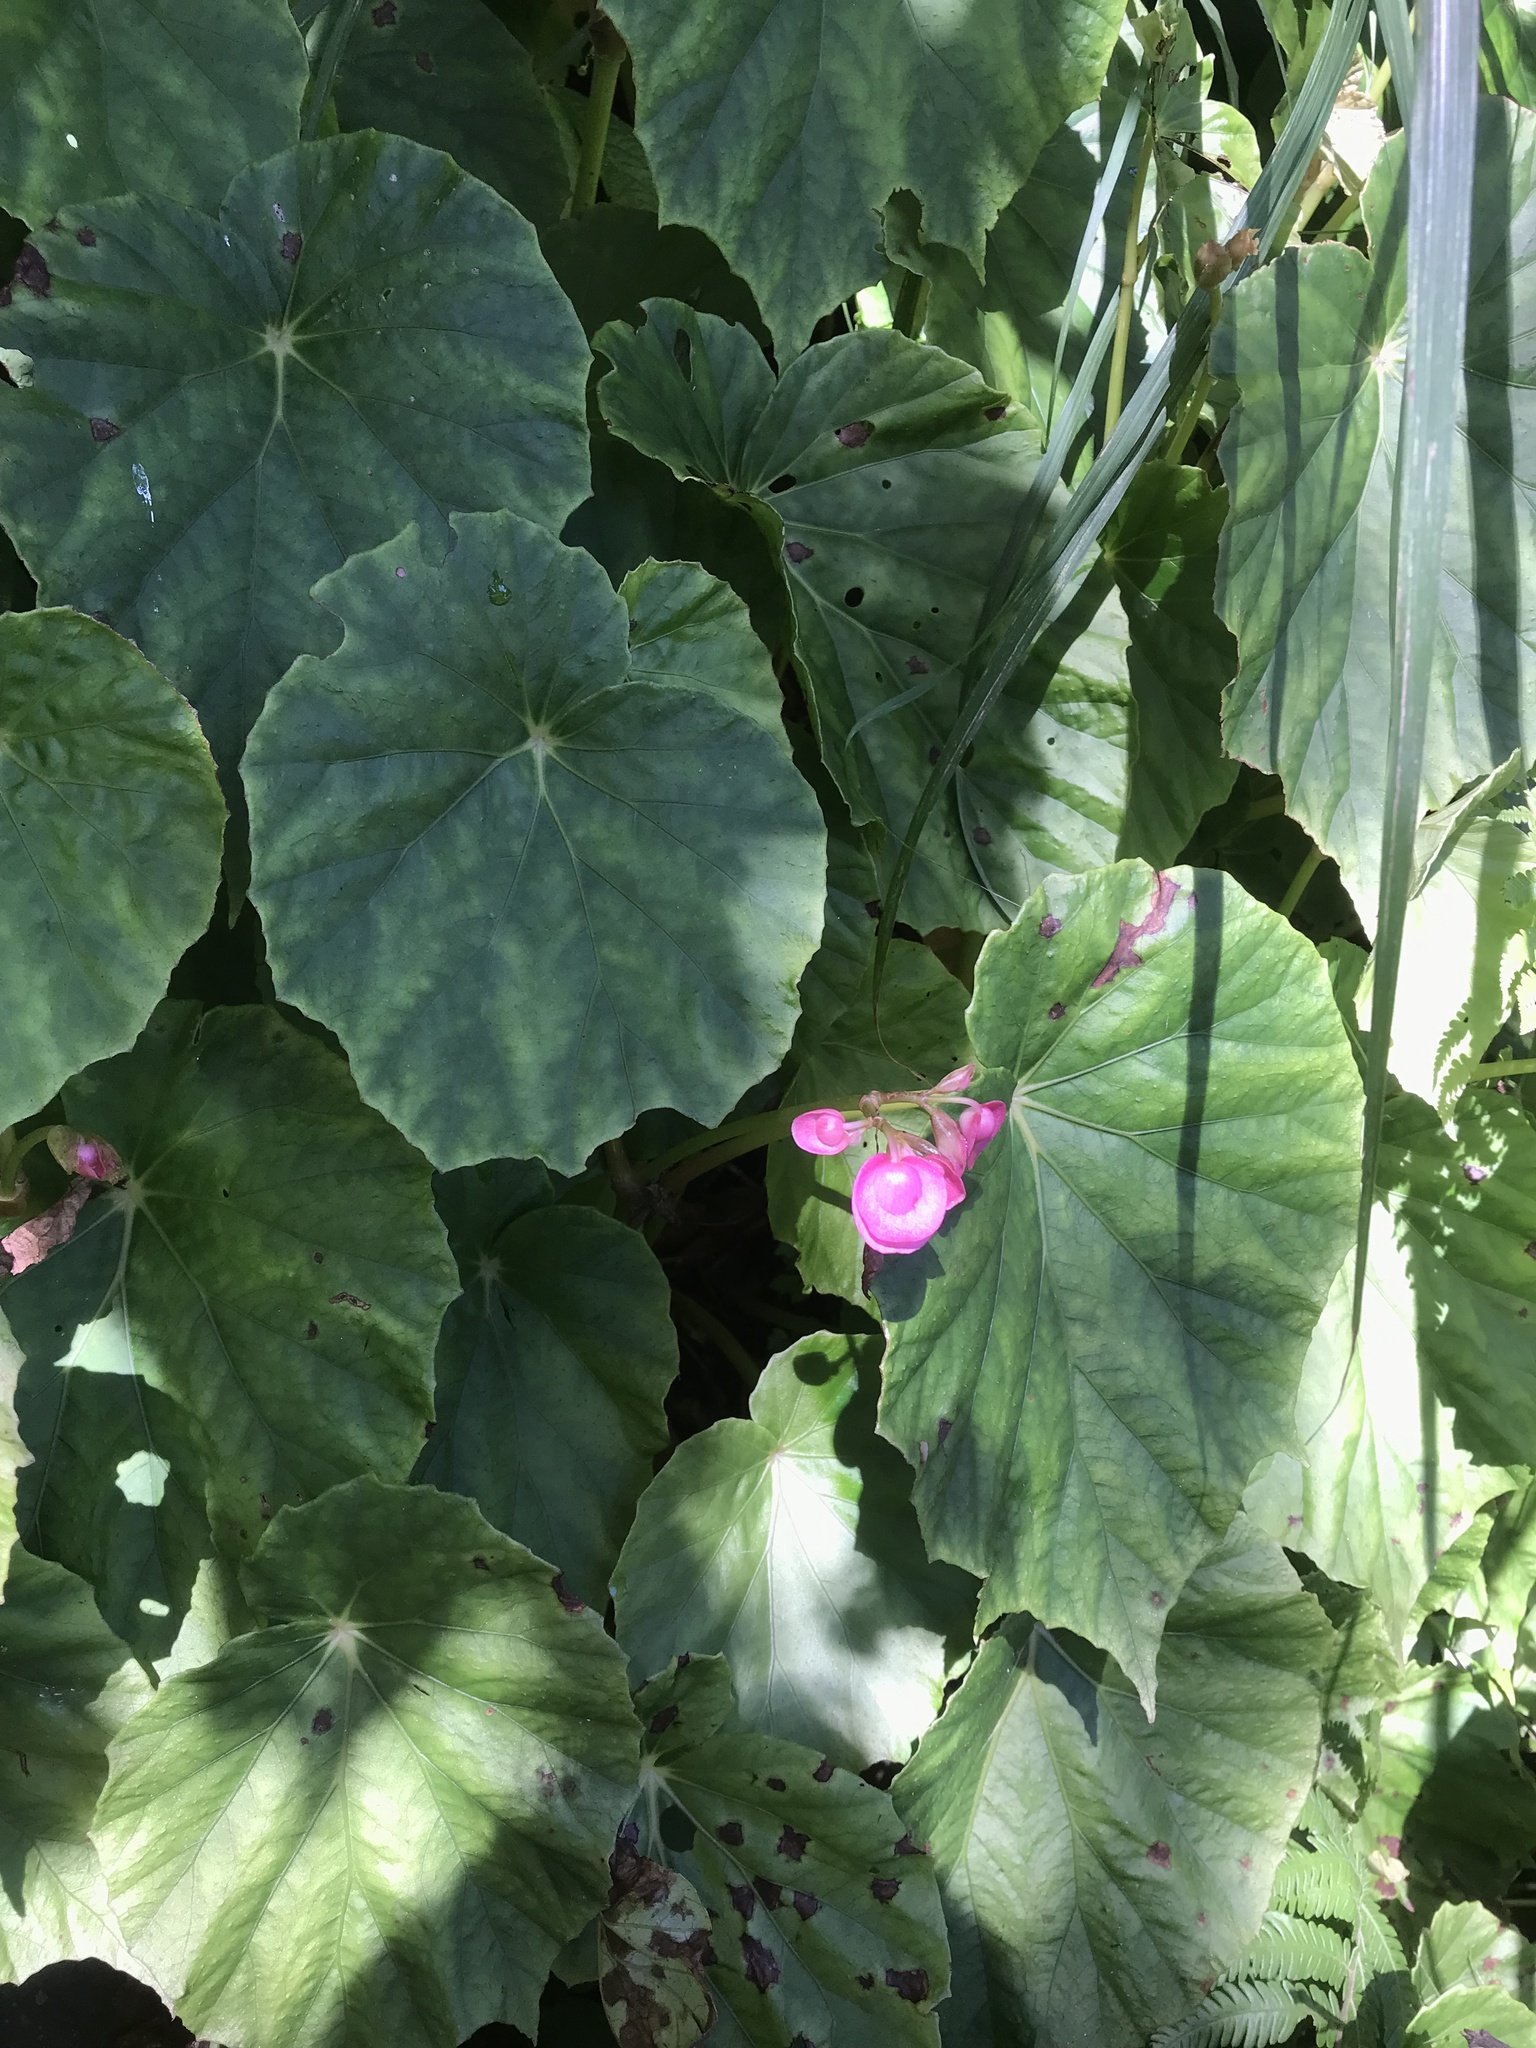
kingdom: Plantae
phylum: Tracheophyta
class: Magnoliopsida
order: Cucurbitales
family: Begoniaceae
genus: Begonia
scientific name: Begonia chitoensis
